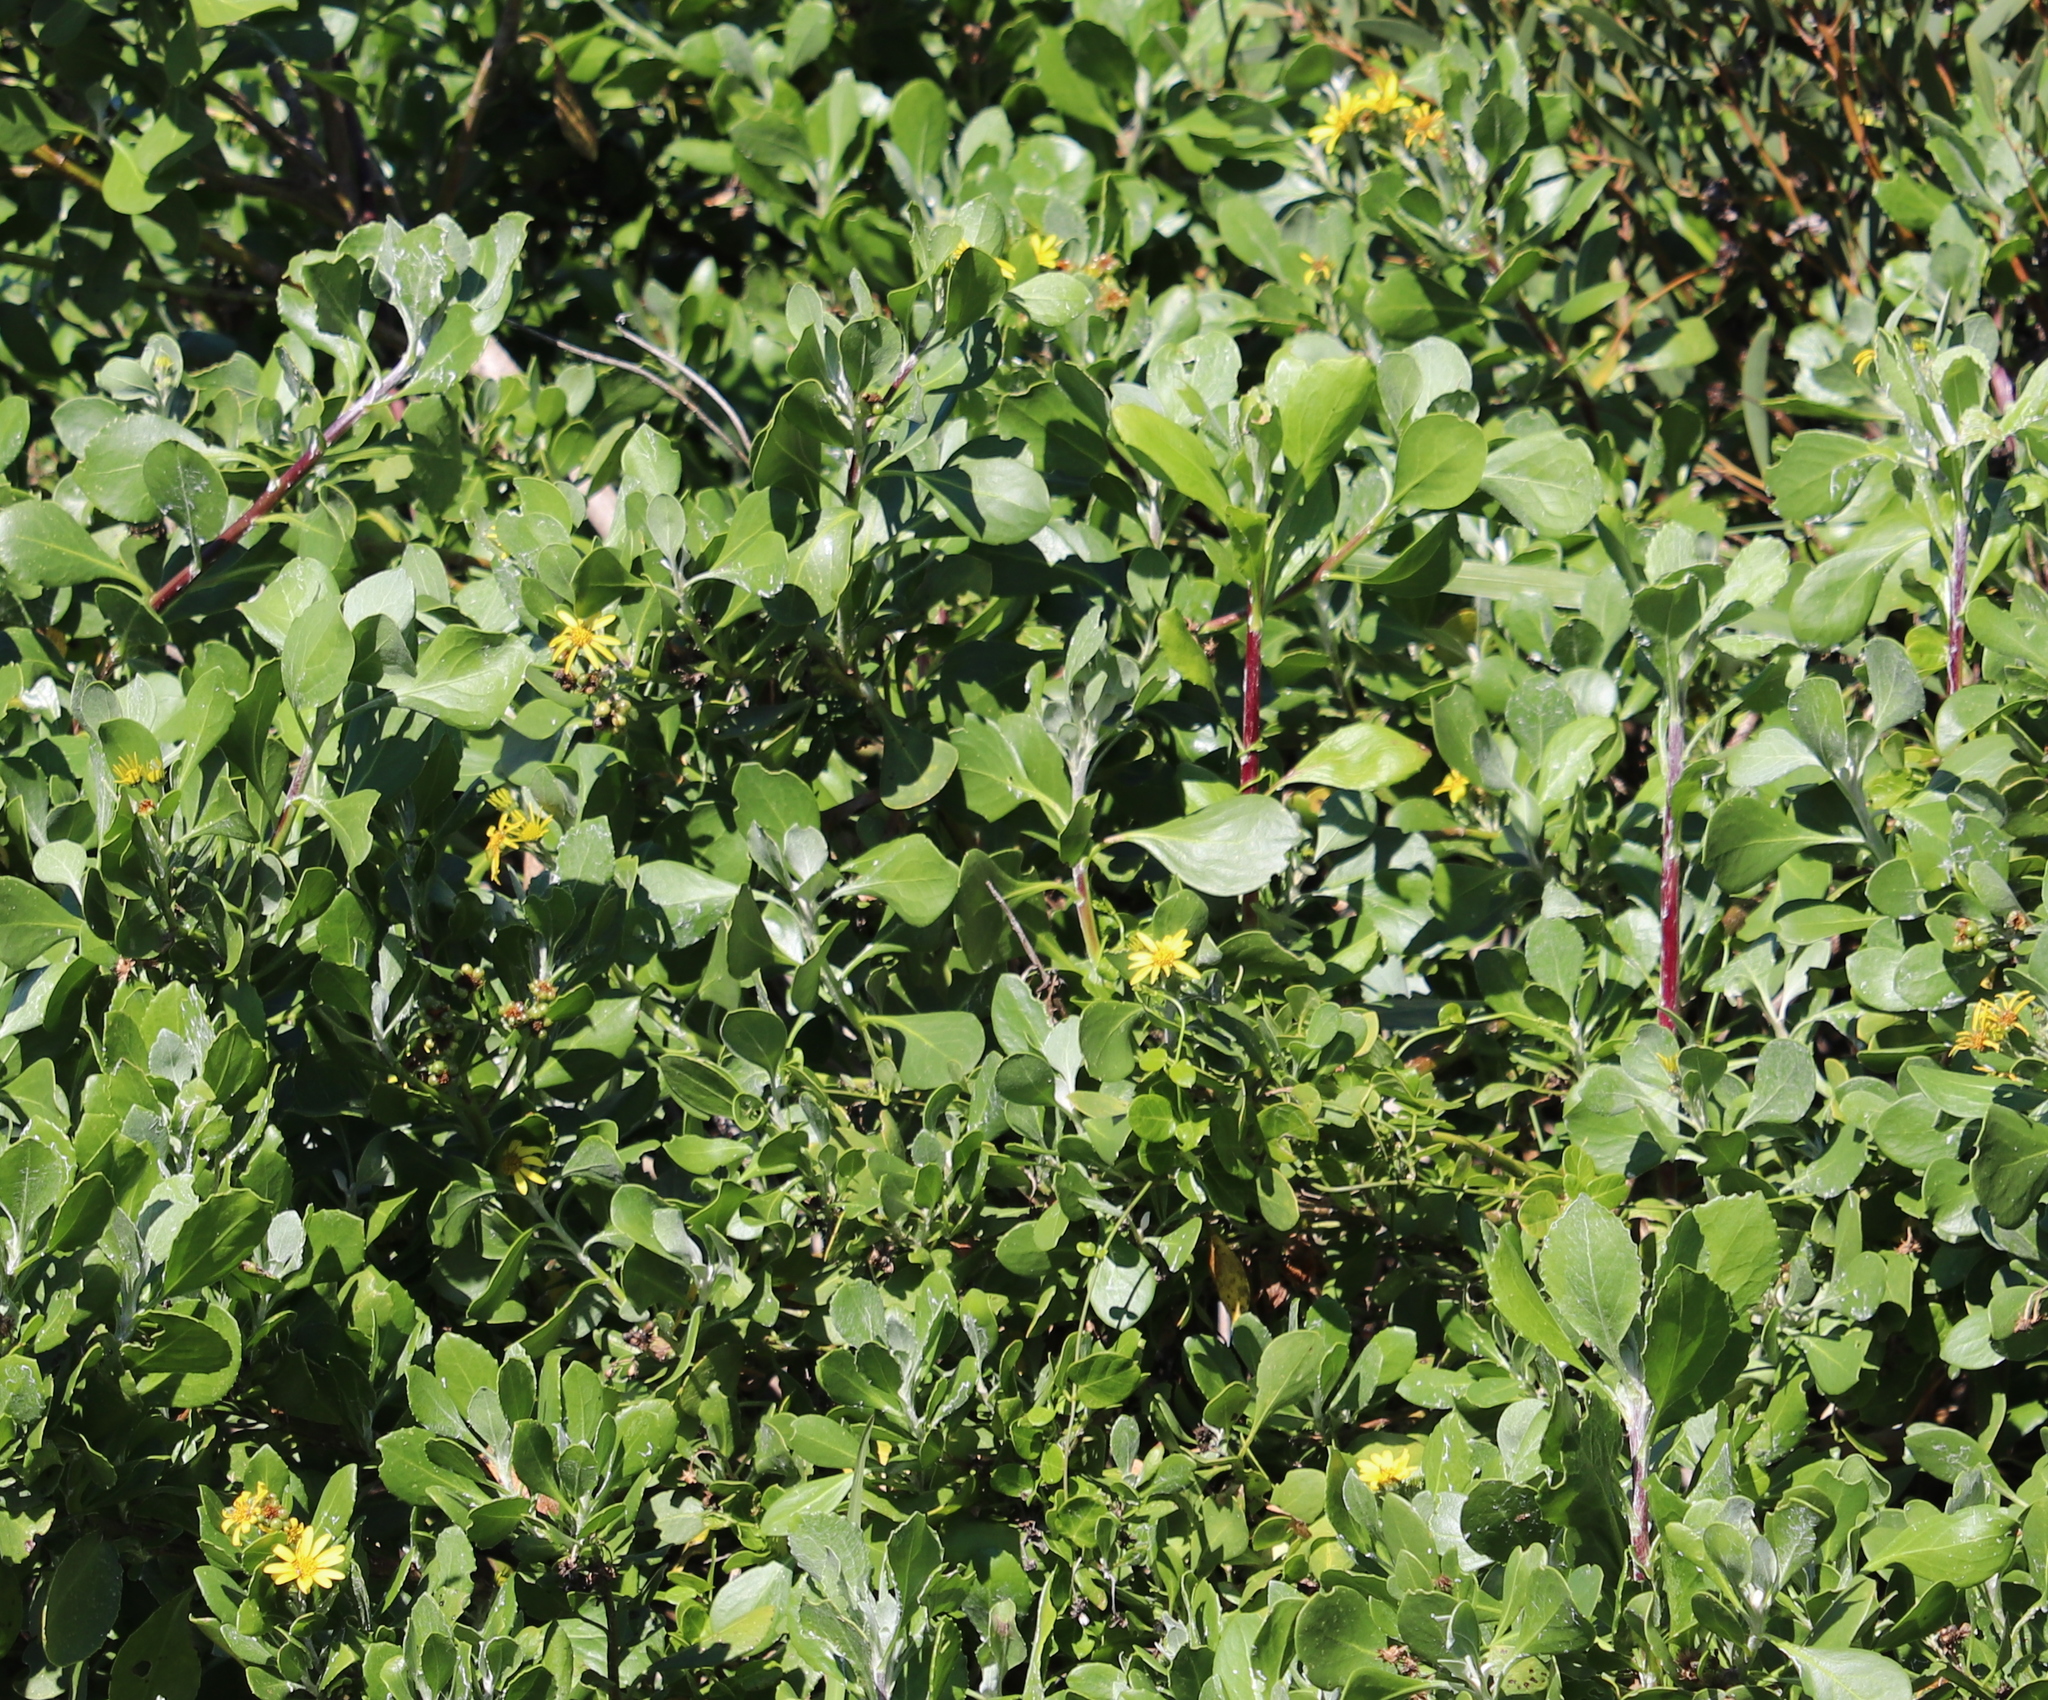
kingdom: Plantae
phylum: Tracheophyta
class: Magnoliopsida
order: Asterales
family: Asteraceae
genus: Osteospermum
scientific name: Osteospermum moniliferum
